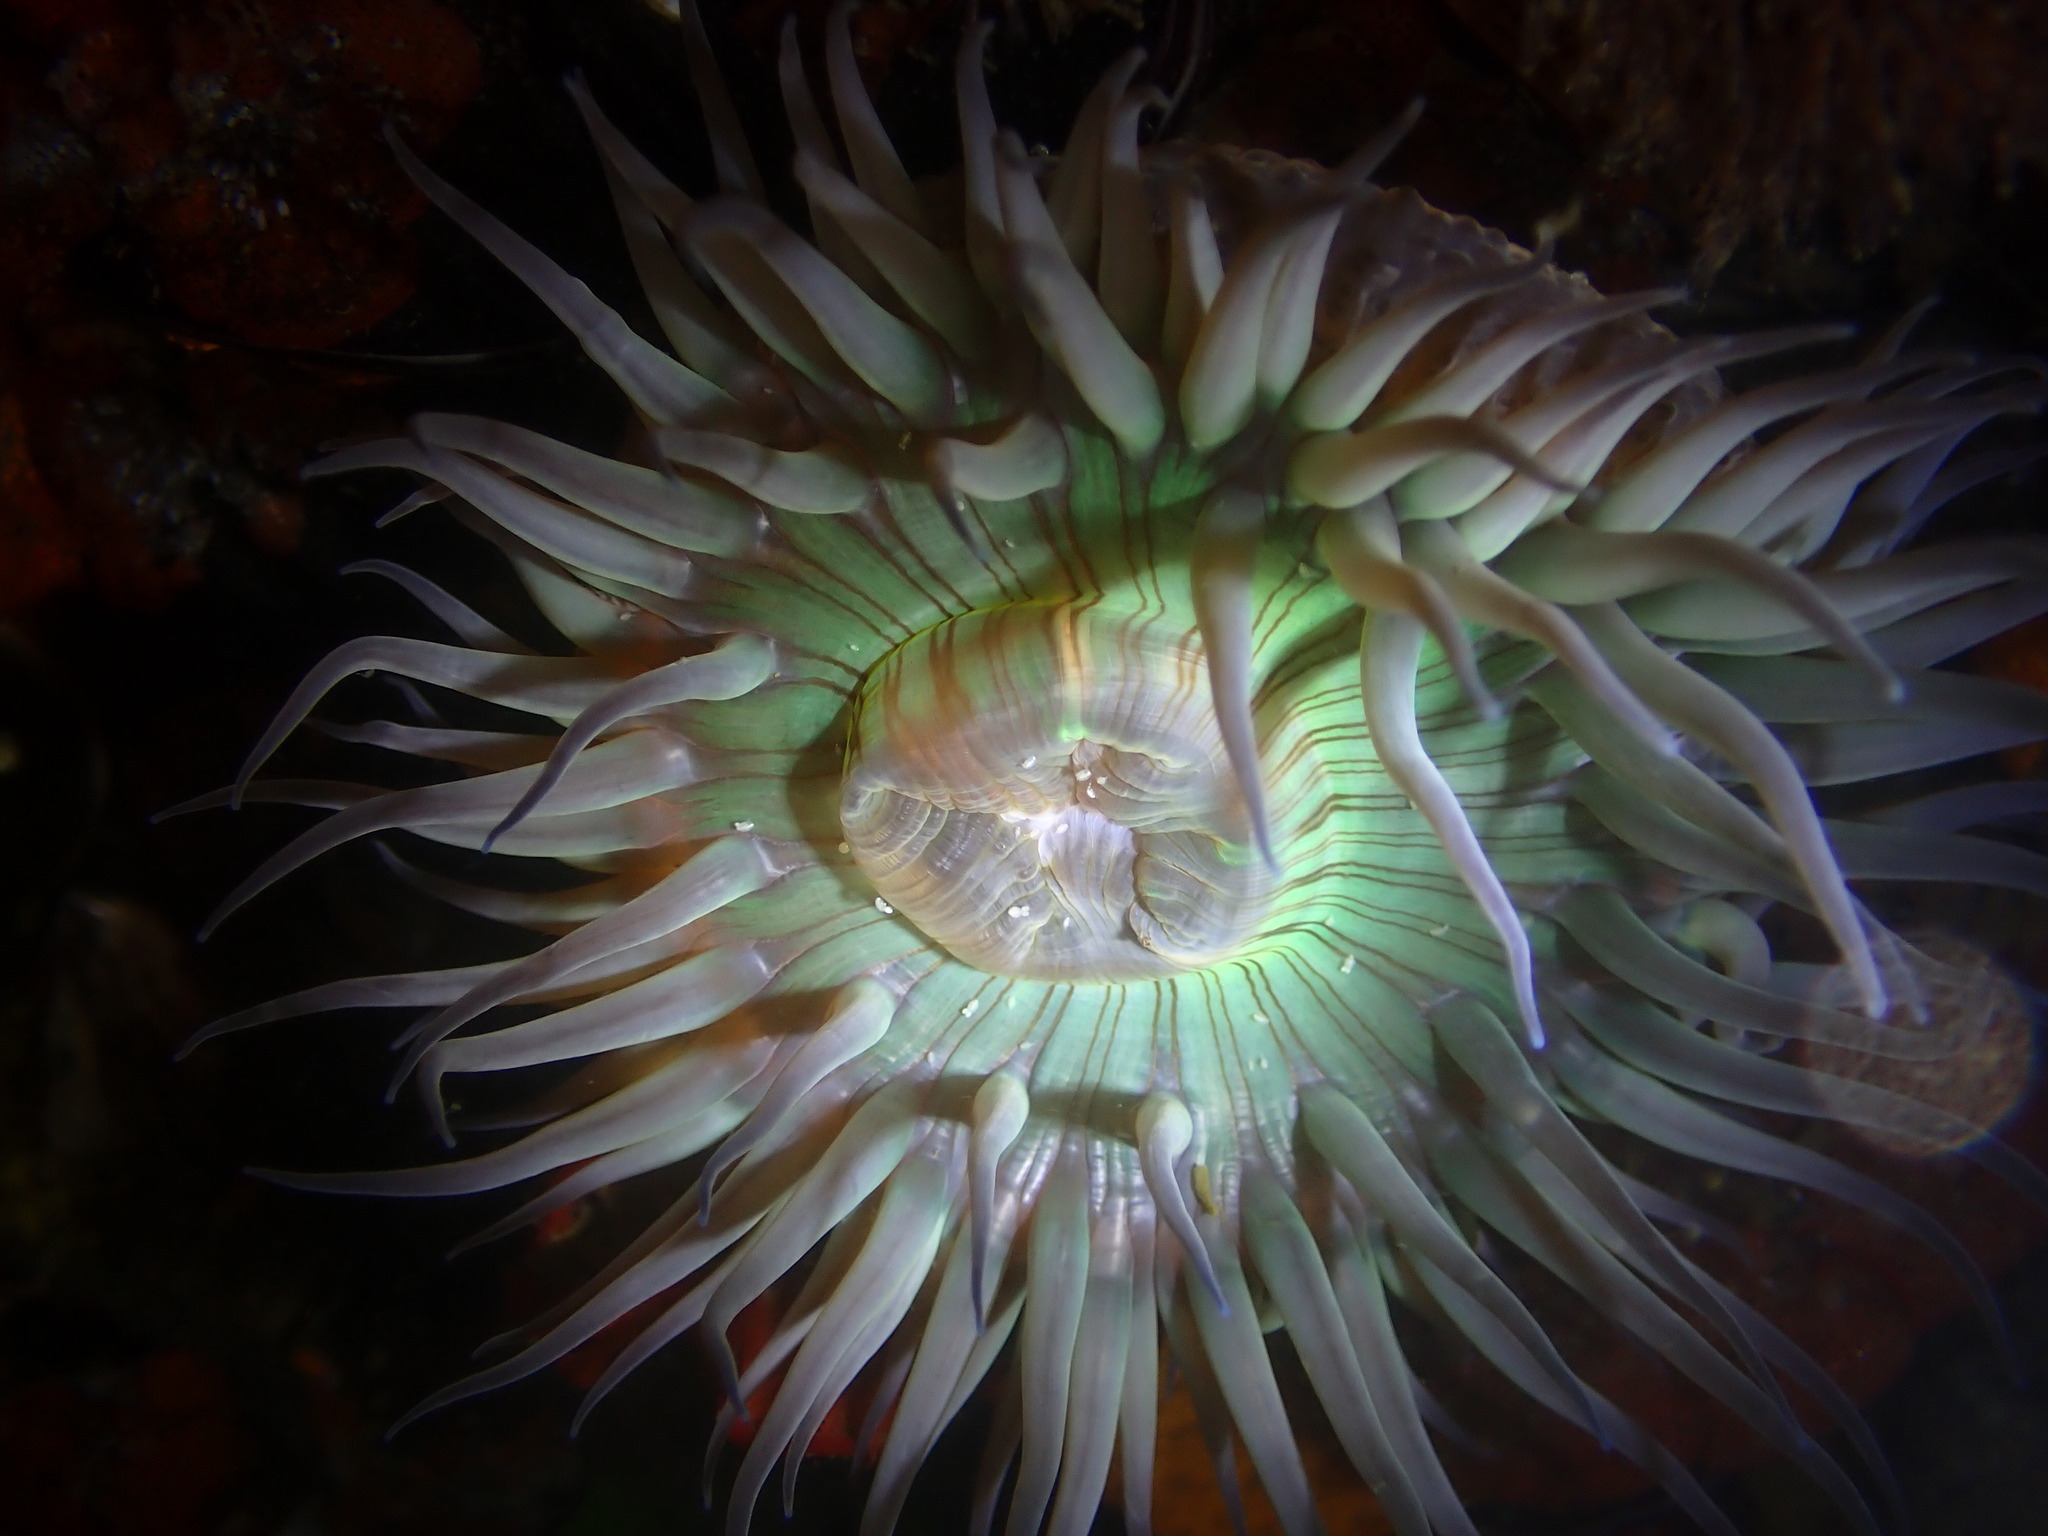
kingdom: Animalia
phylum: Cnidaria
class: Anthozoa
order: Actiniaria
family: Actiniidae
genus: Anthopleura
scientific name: Anthopleura sola
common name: Sun anemone
